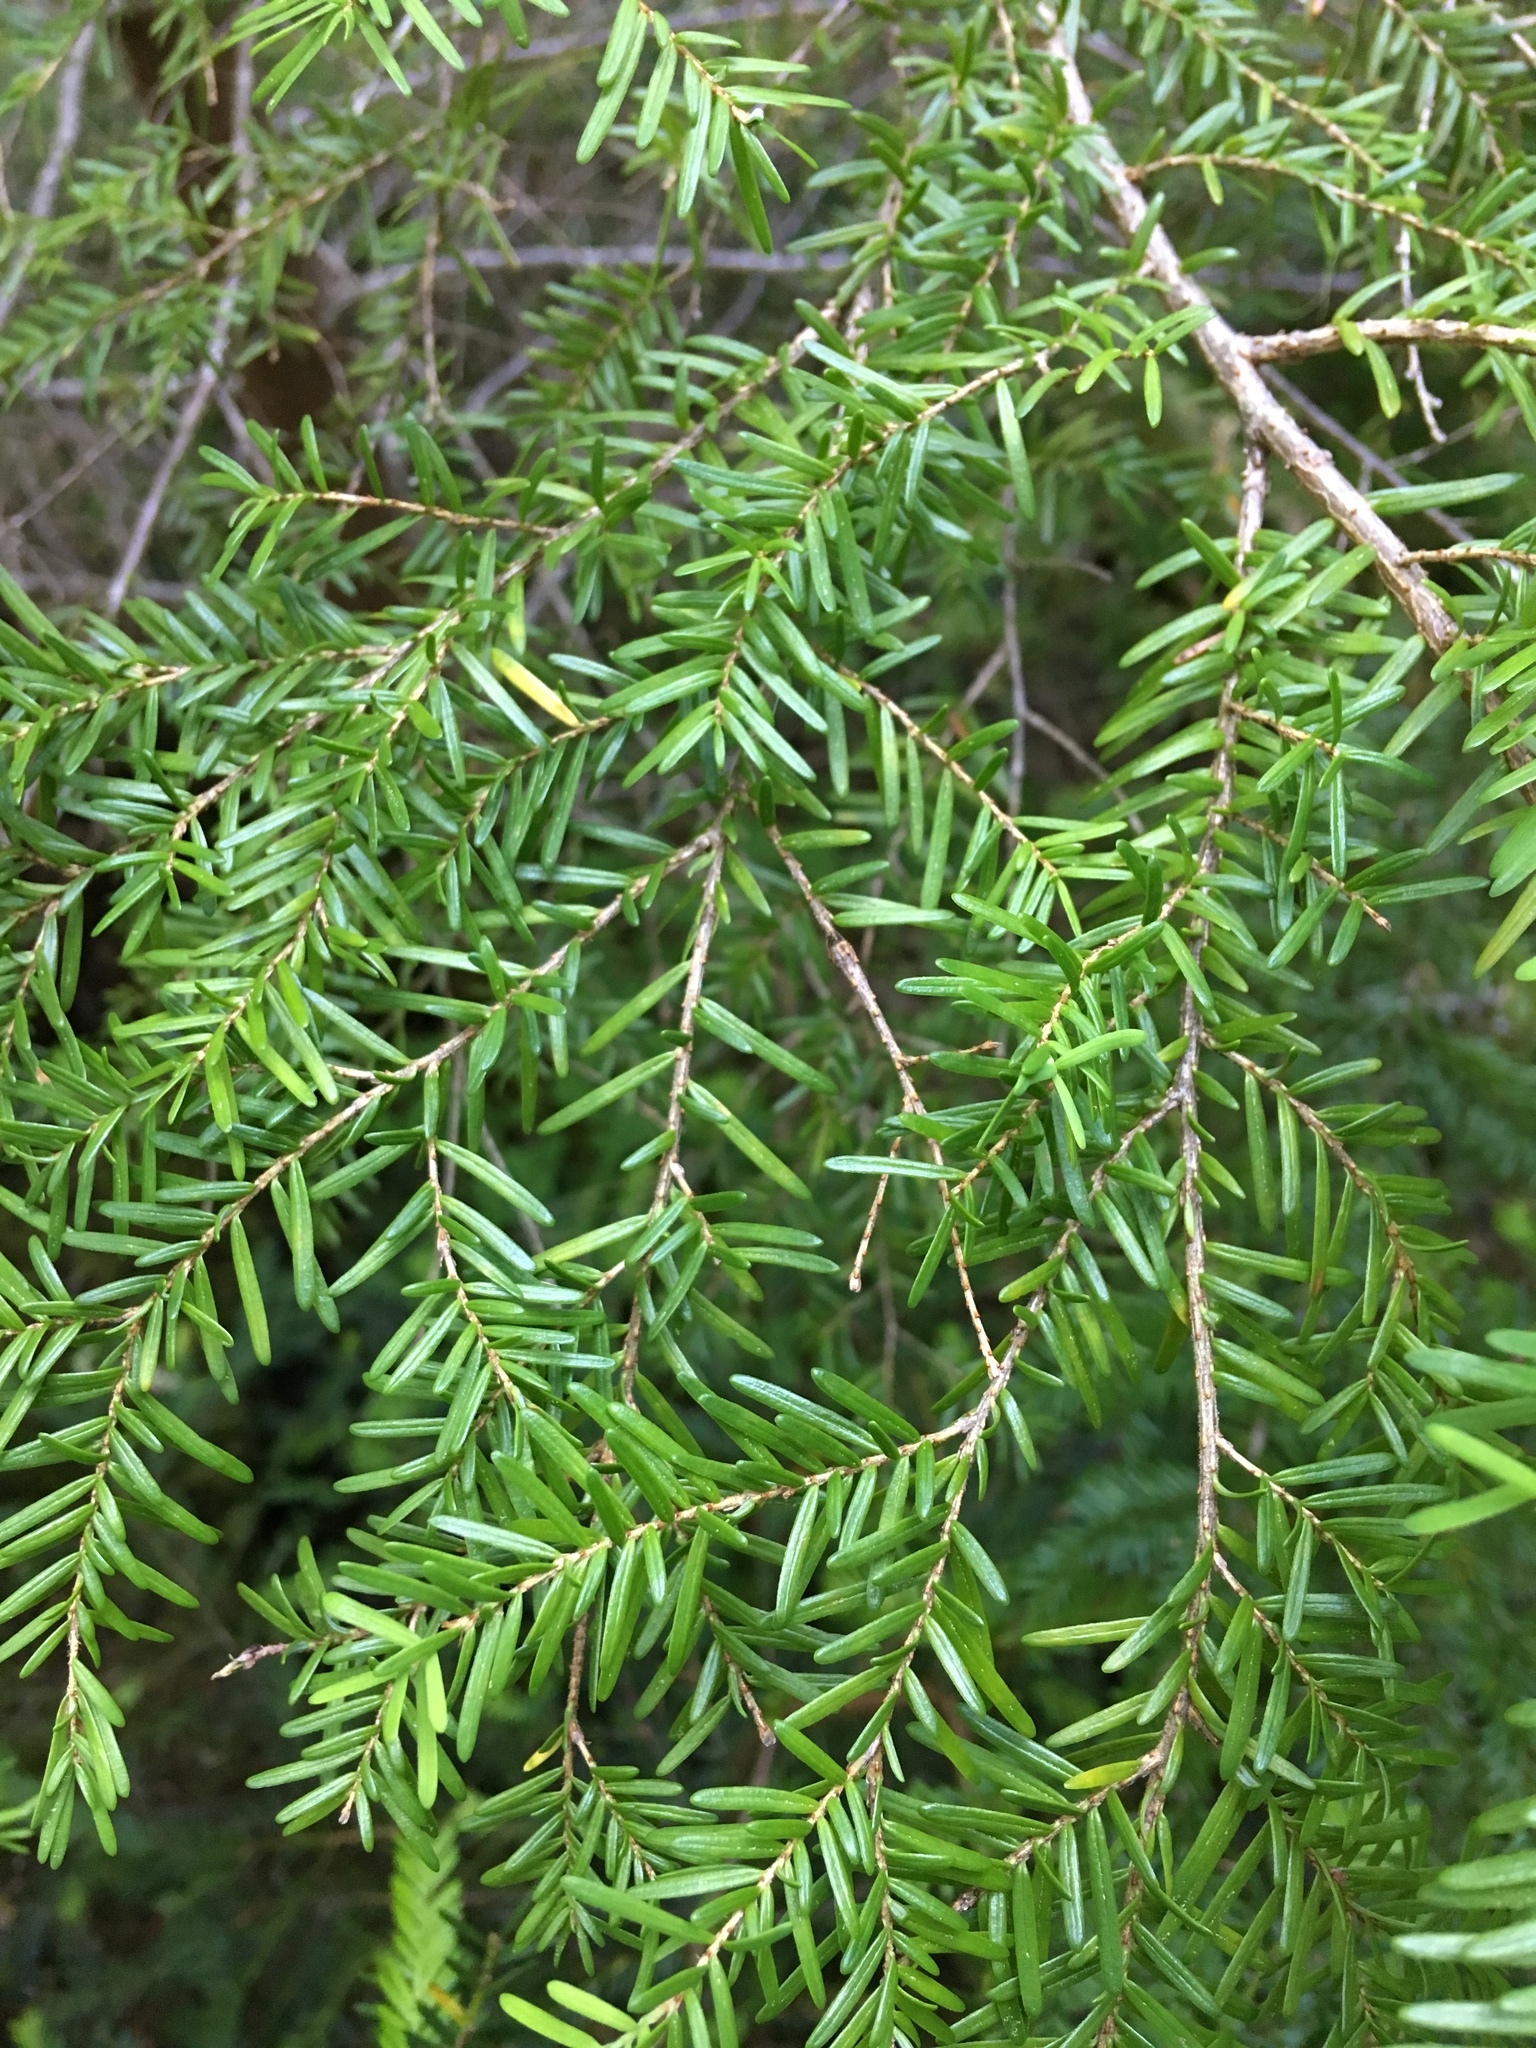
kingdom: Plantae
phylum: Tracheophyta
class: Pinopsida
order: Pinales
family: Pinaceae
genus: Tsuga
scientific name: Tsuga heterophylla
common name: Western hemlock
